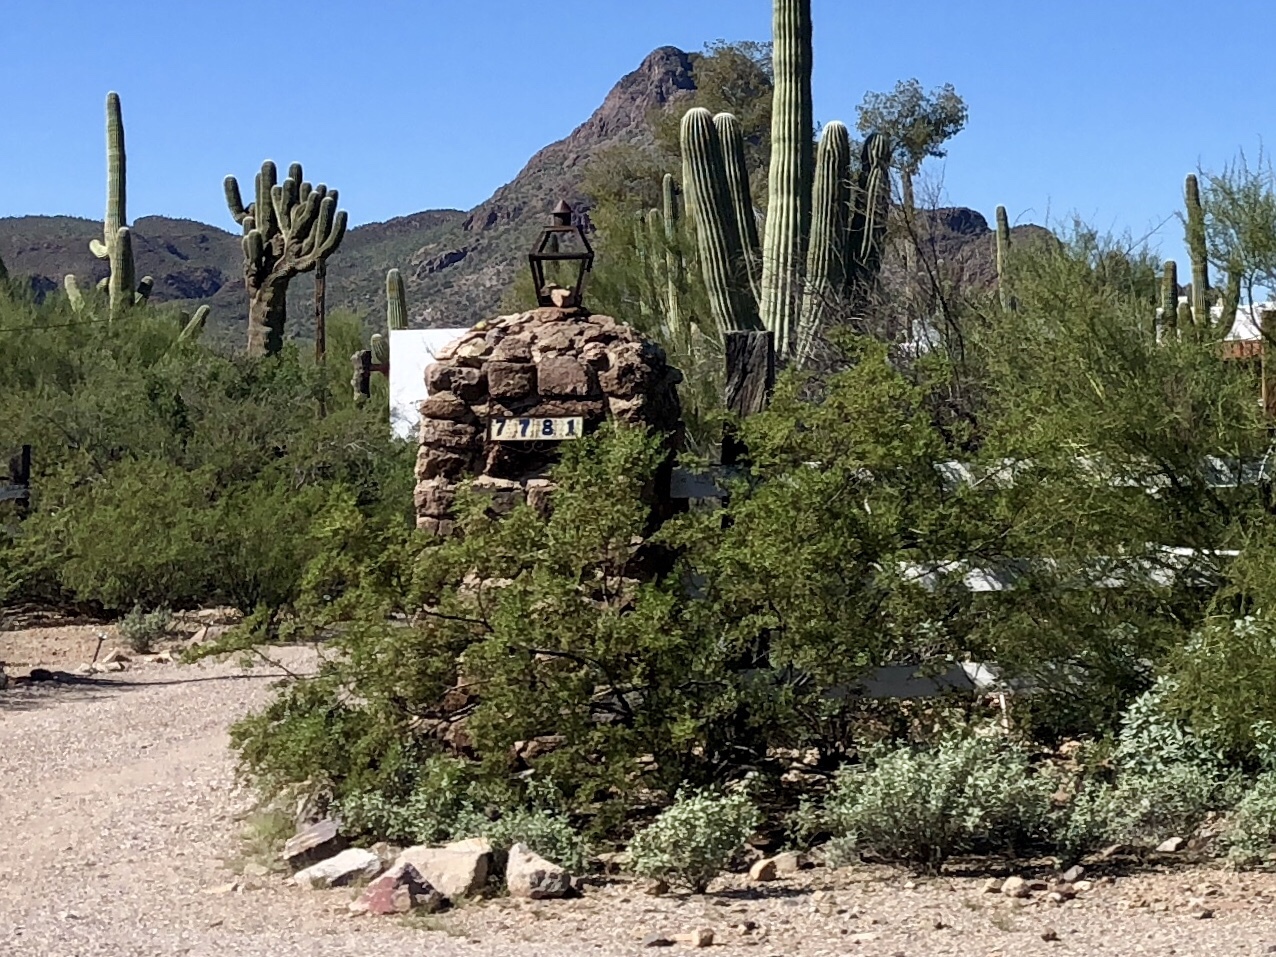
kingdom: Plantae
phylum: Tracheophyta
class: Magnoliopsida
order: Zygophyllales
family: Zygophyllaceae
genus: Larrea
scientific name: Larrea tridentata
